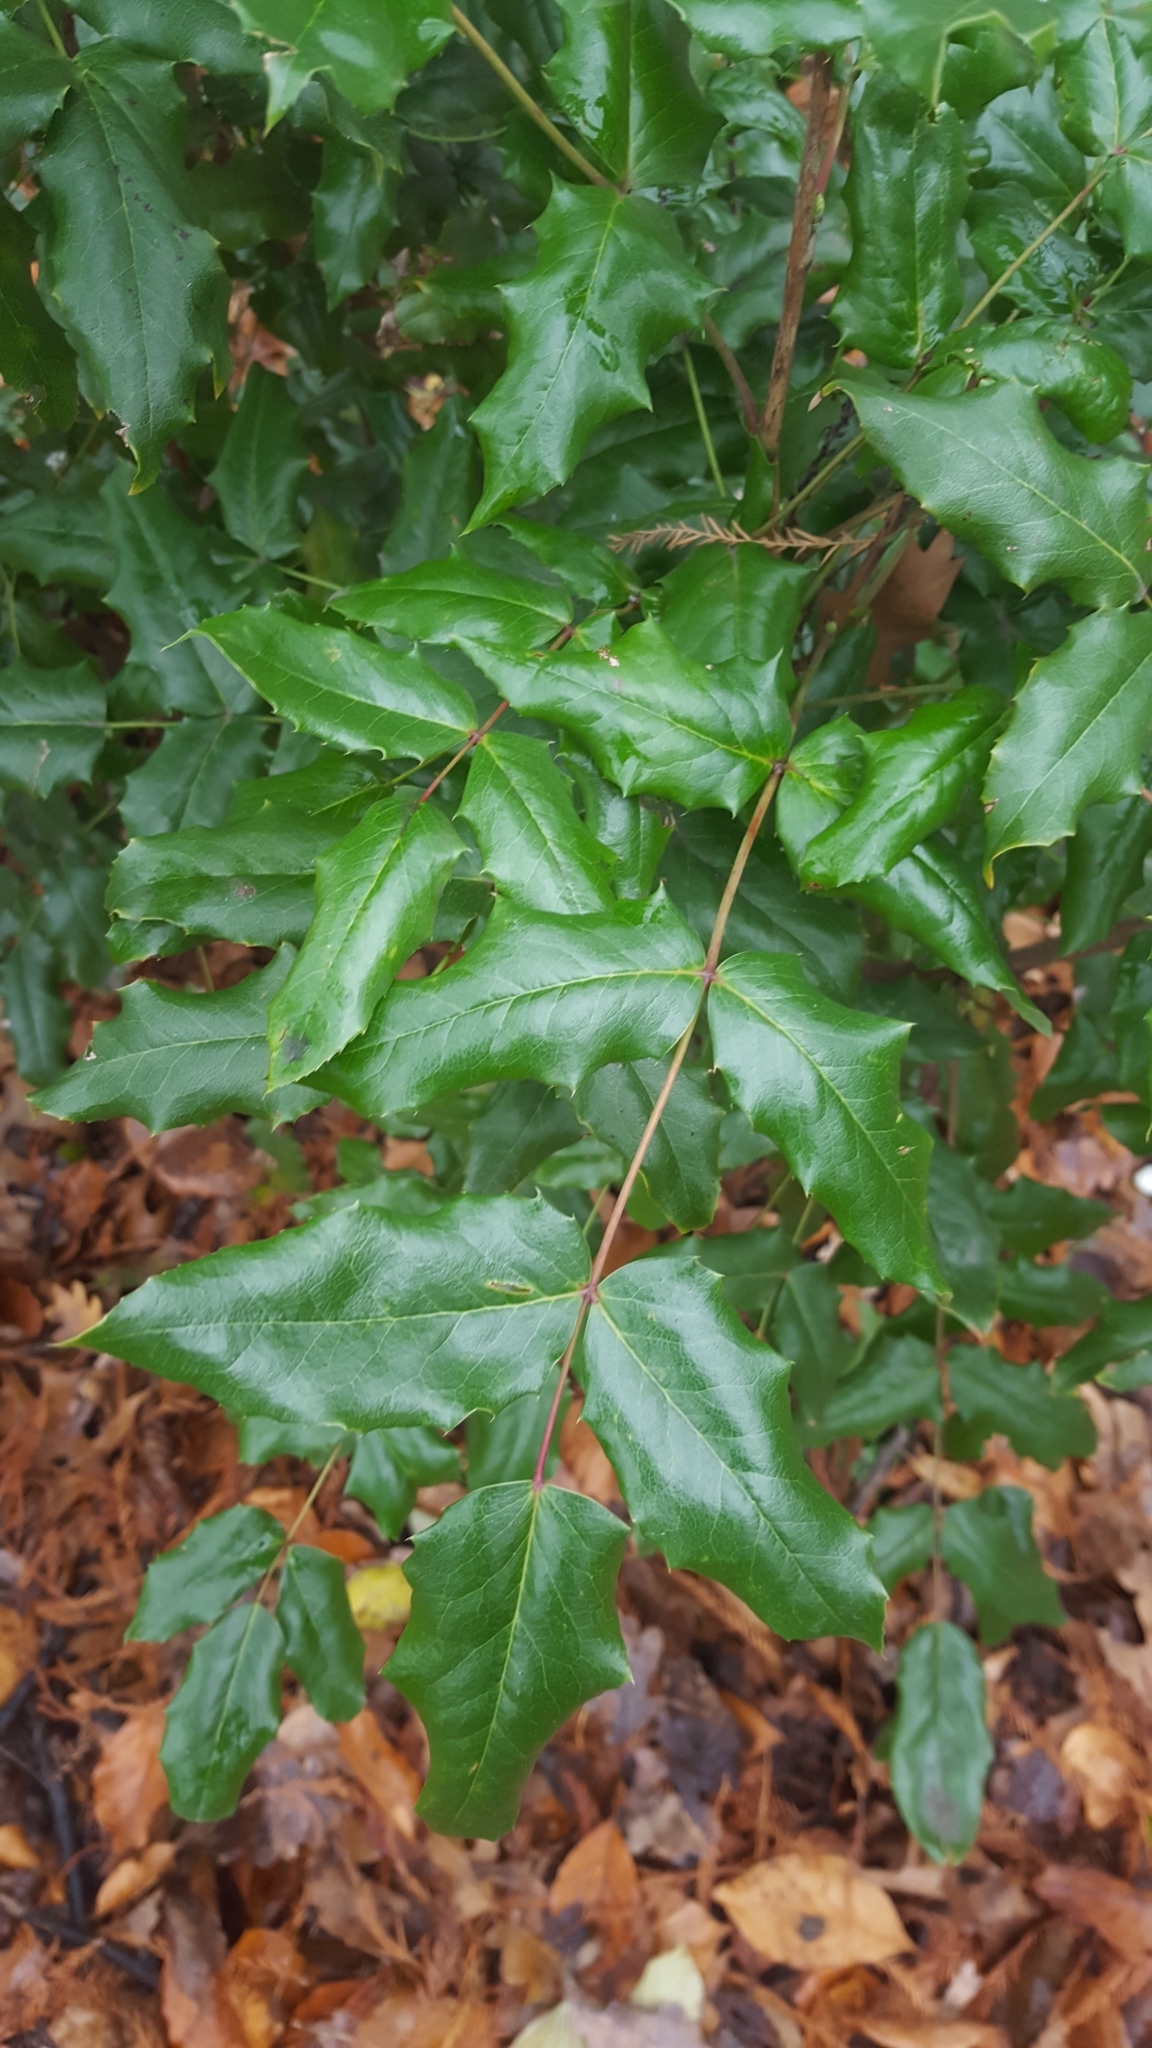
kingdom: Plantae
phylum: Tracheophyta
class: Magnoliopsida
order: Ranunculales
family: Berberidaceae
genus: Mahonia
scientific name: Mahonia aquifolium
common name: Oregon-grape
